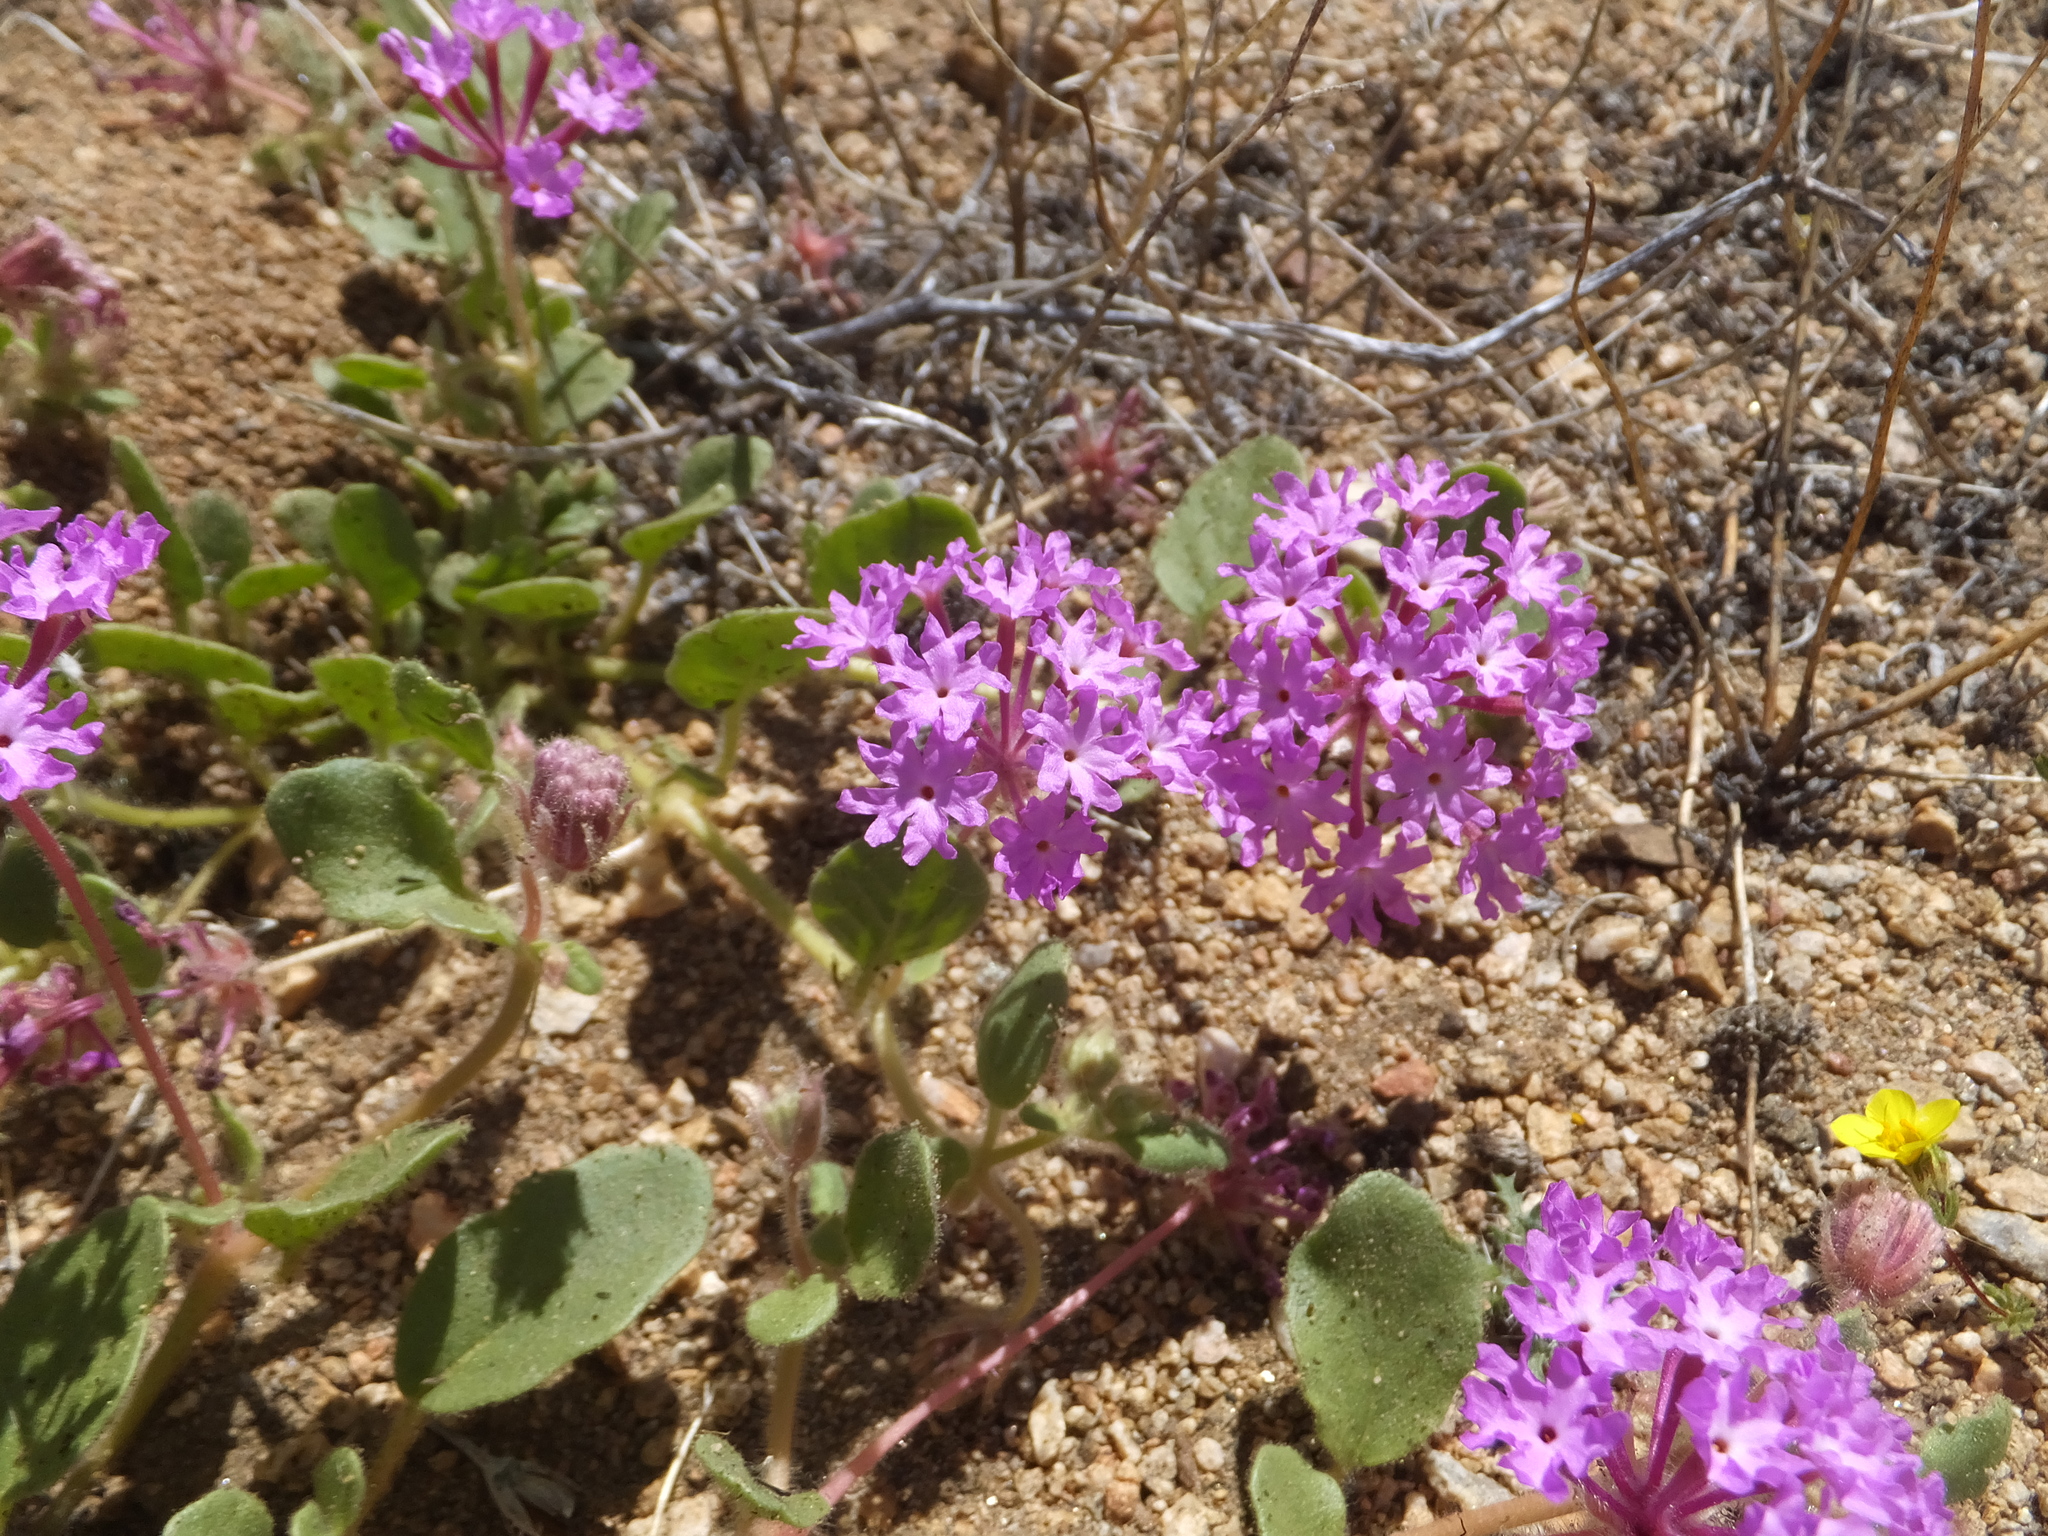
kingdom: Plantae
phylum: Tracheophyta
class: Magnoliopsida
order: Caryophyllales
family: Nyctaginaceae
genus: Abronia
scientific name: Abronia villosa
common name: Desert sand-verbena
